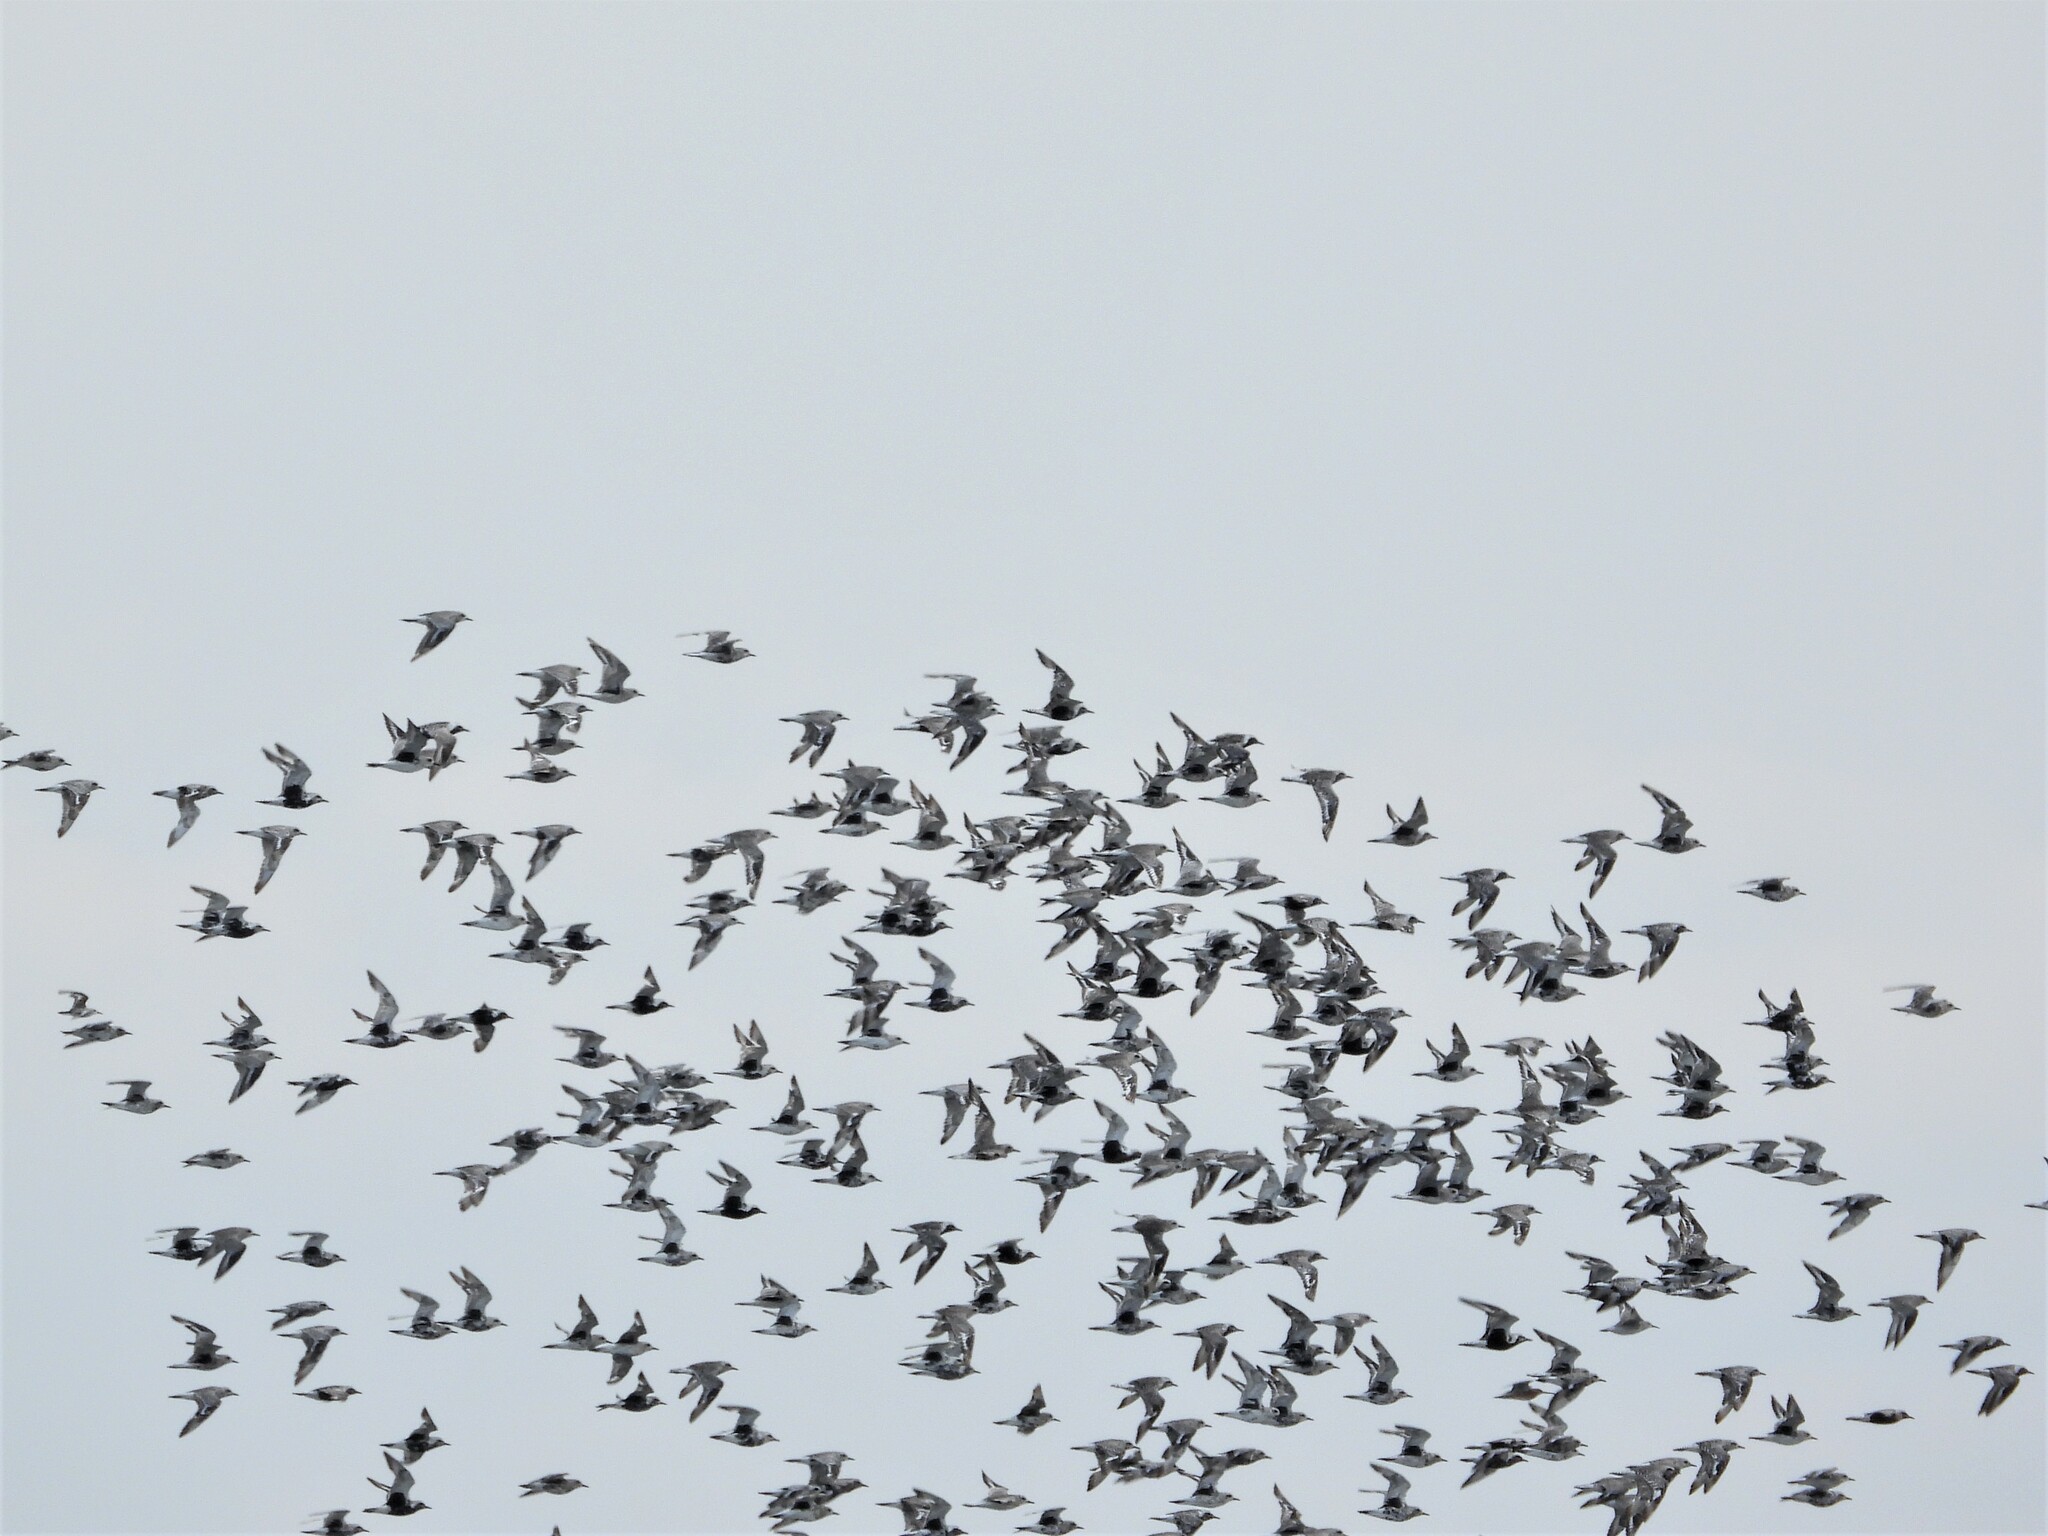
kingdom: Animalia
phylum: Chordata
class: Aves
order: Charadriiformes
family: Charadriidae
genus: Pluvialis
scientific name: Pluvialis squatarola
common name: Grey plover
